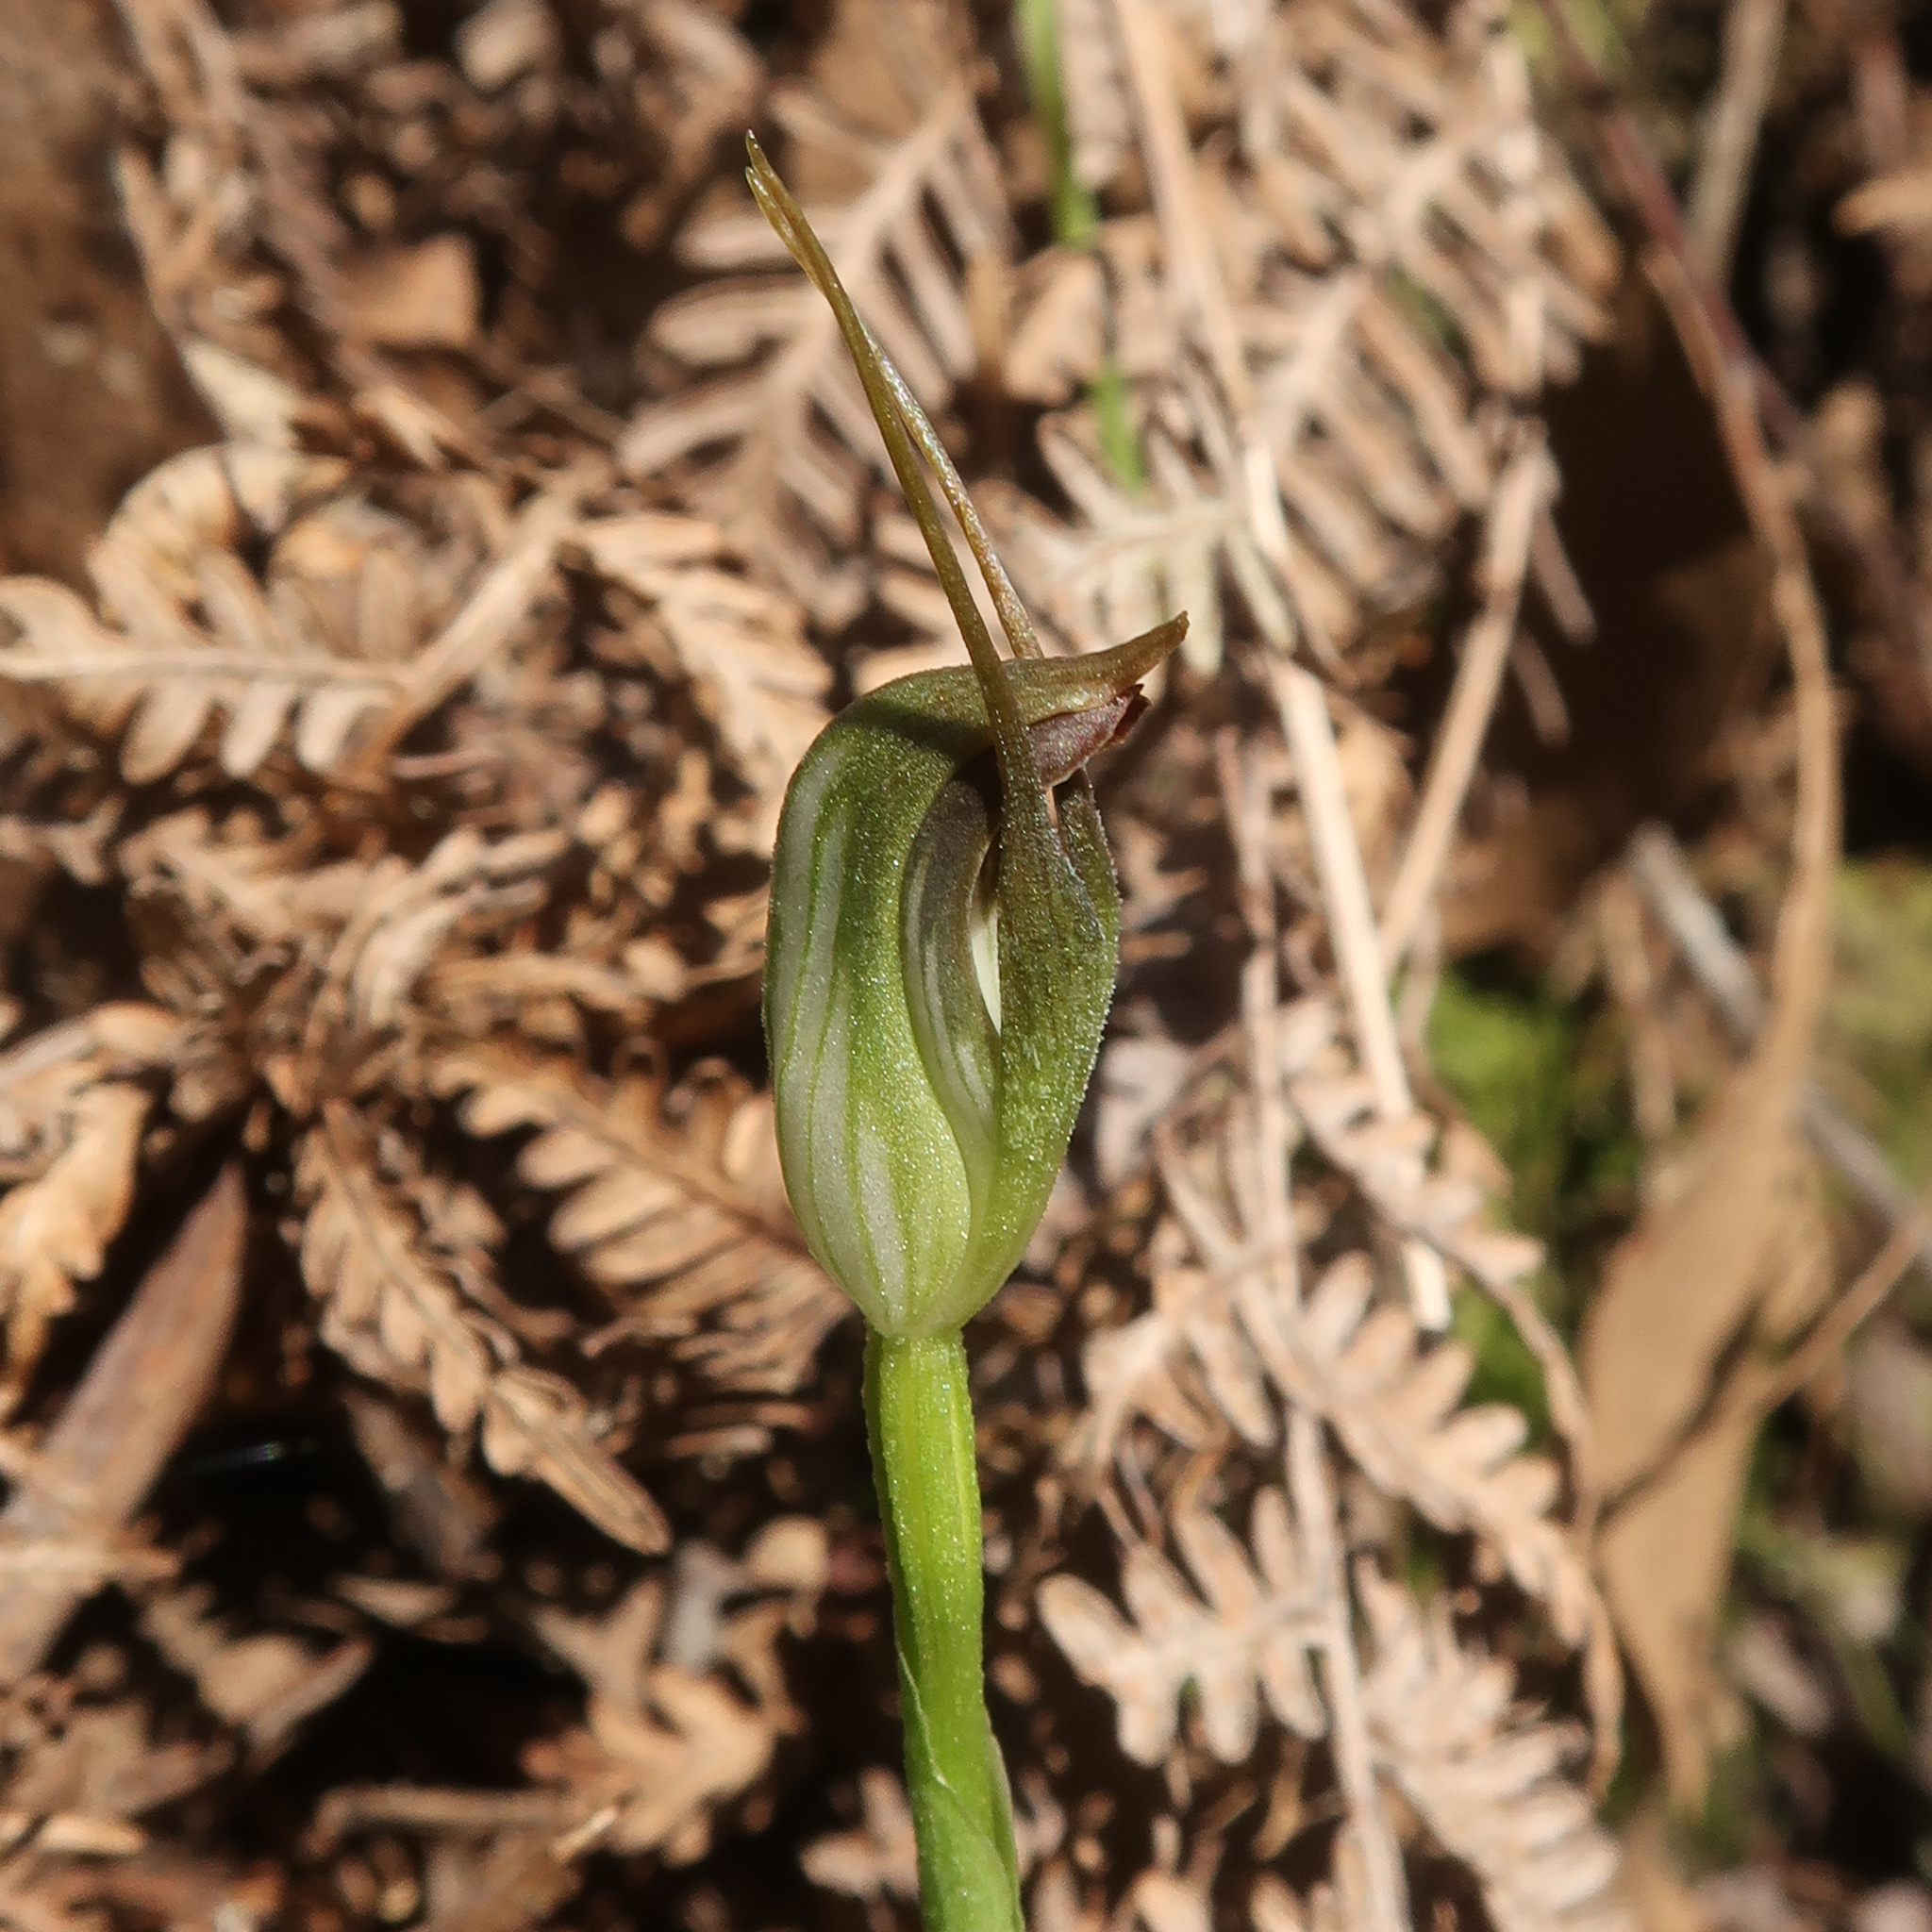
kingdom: Plantae
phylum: Tracheophyta
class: Liliopsida
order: Asparagales
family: Orchidaceae
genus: Pterostylis
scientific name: Pterostylis pedunculata
